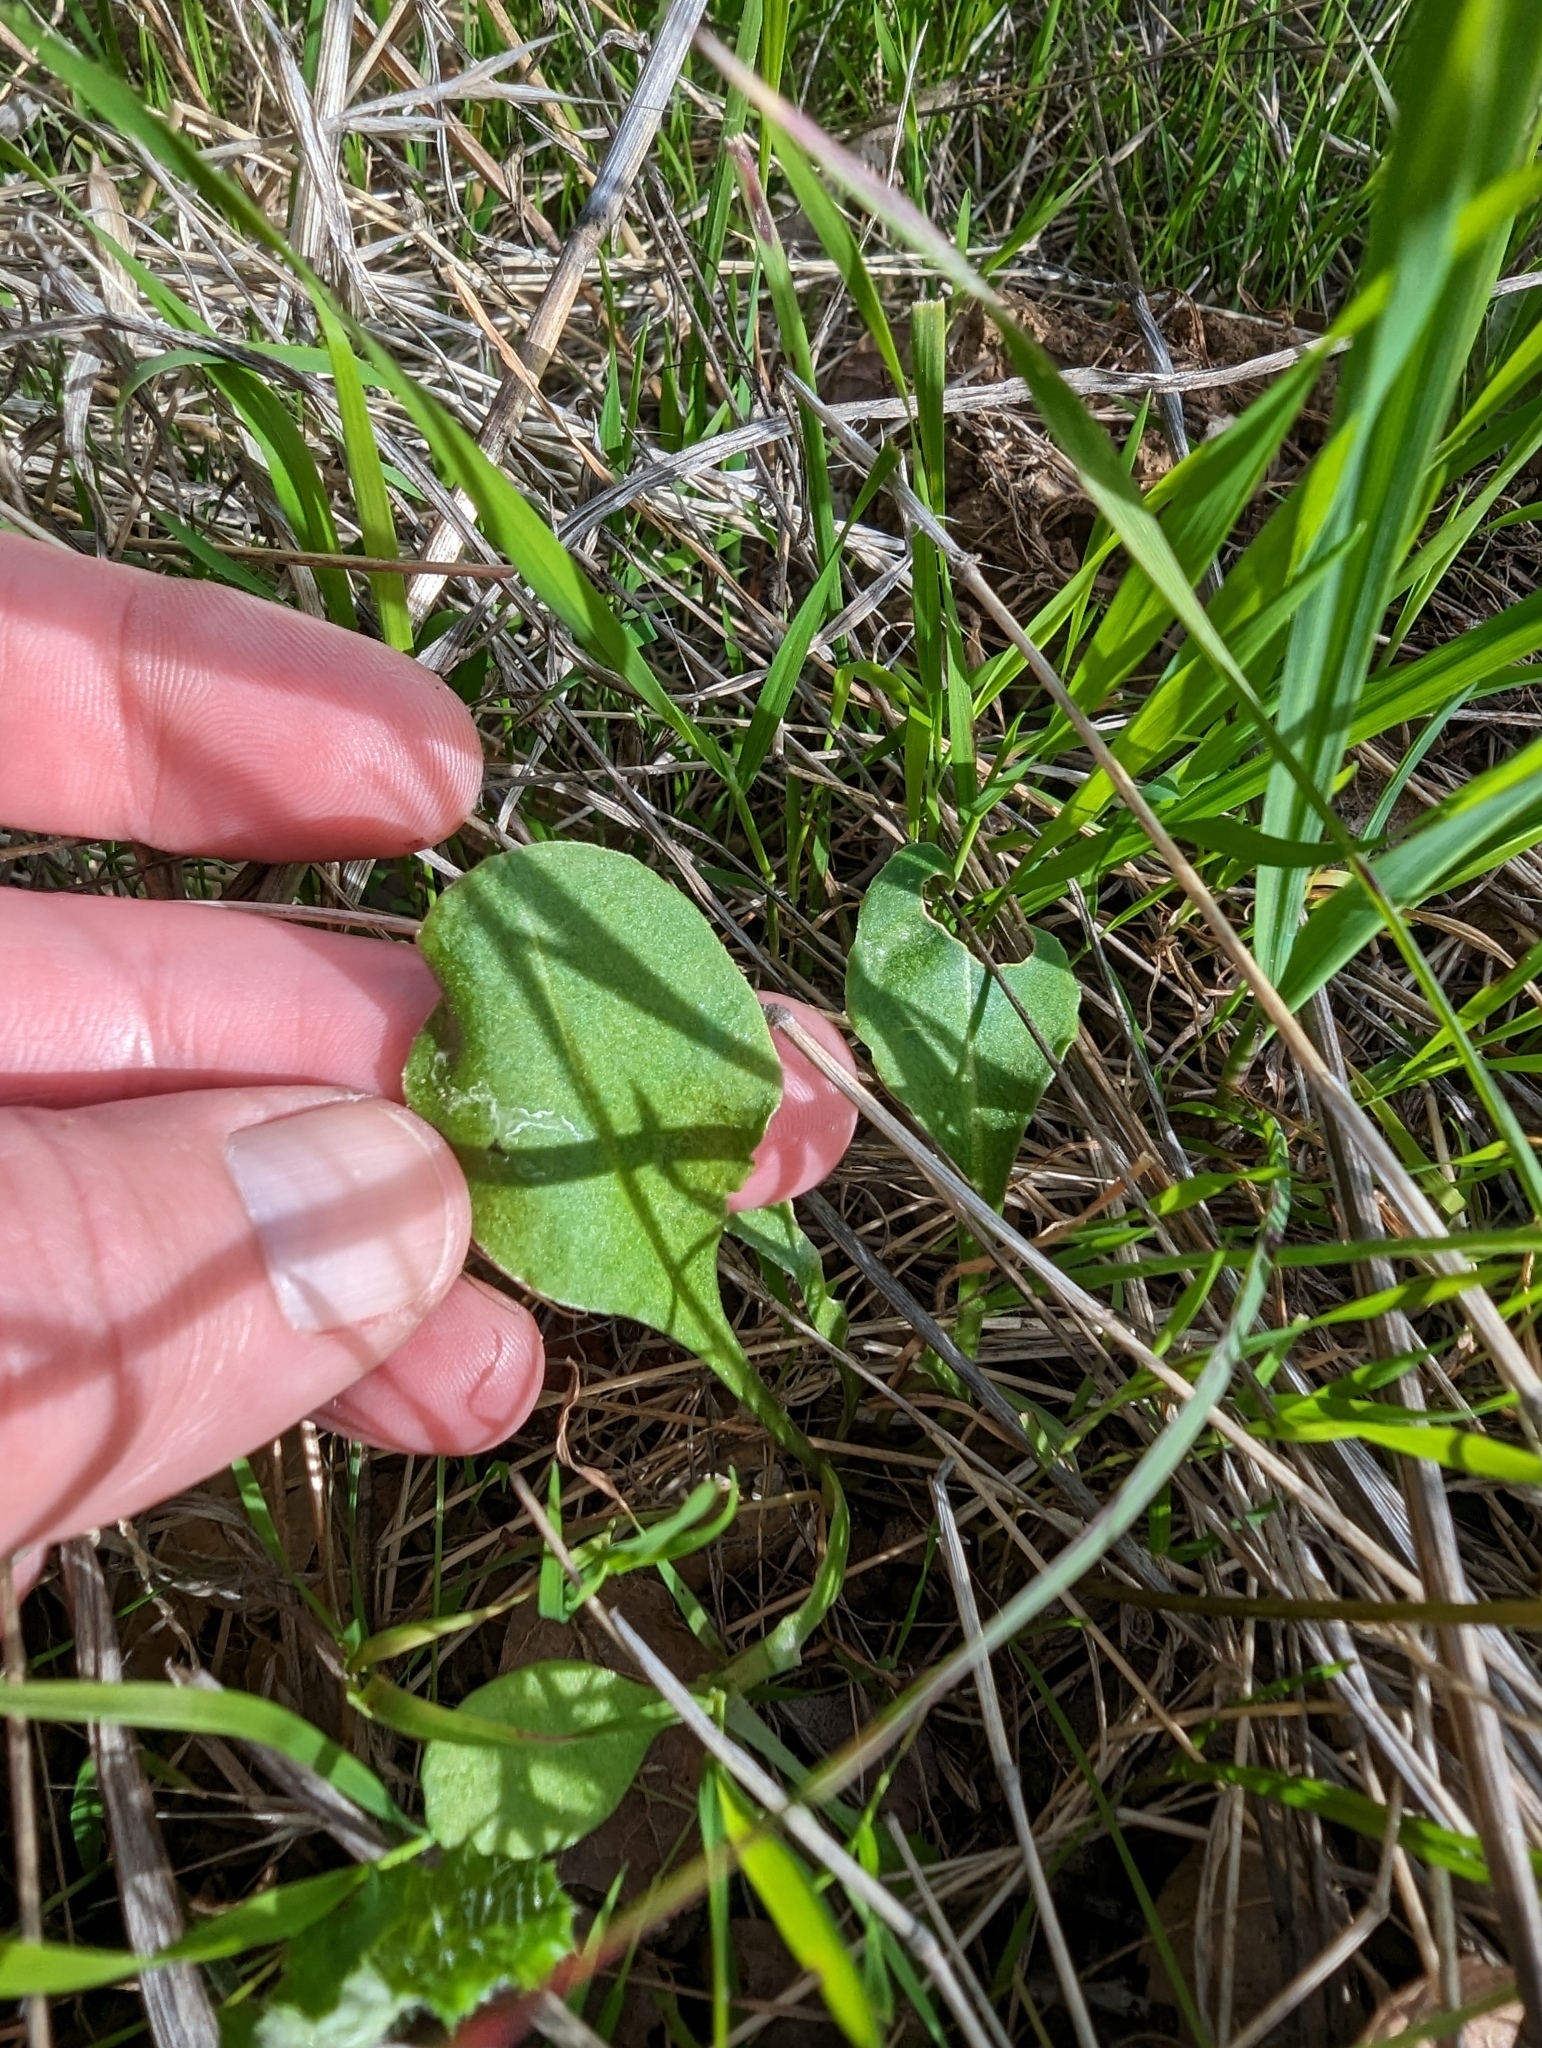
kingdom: Plantae
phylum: Tracheophyta
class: Magnoliopsida
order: Ericales
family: Primulaceae
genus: Dodecatheon
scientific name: Dodecatheon hendersonii
